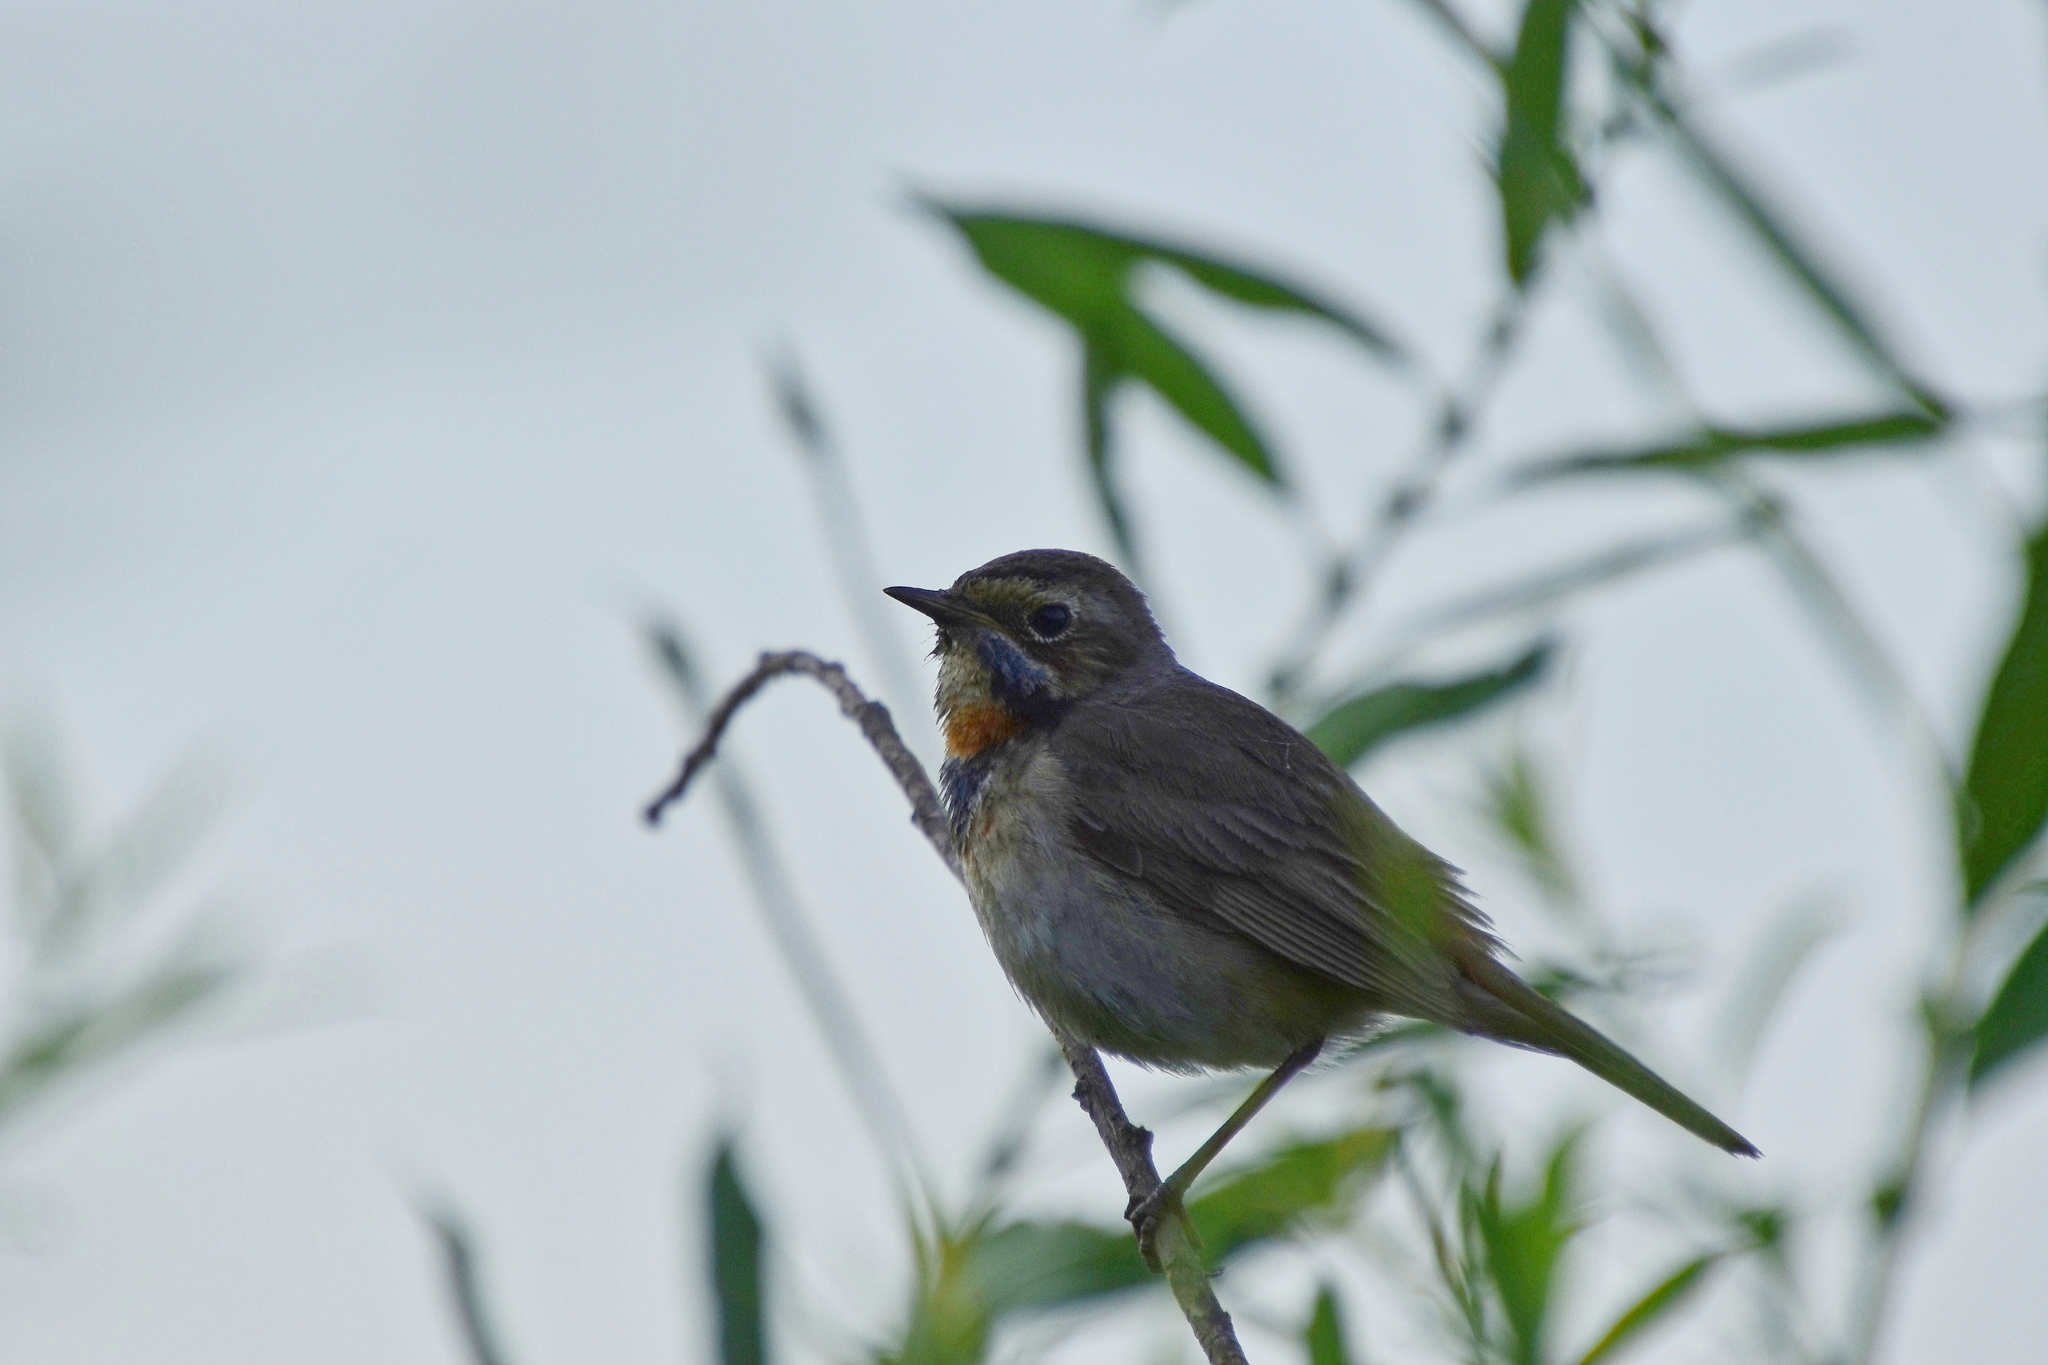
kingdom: Animalia
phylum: Chordata
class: Aves
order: Passeriformes
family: Muscicapidae
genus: Luscinia
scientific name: Luscinia svecica
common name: Bluethroat
